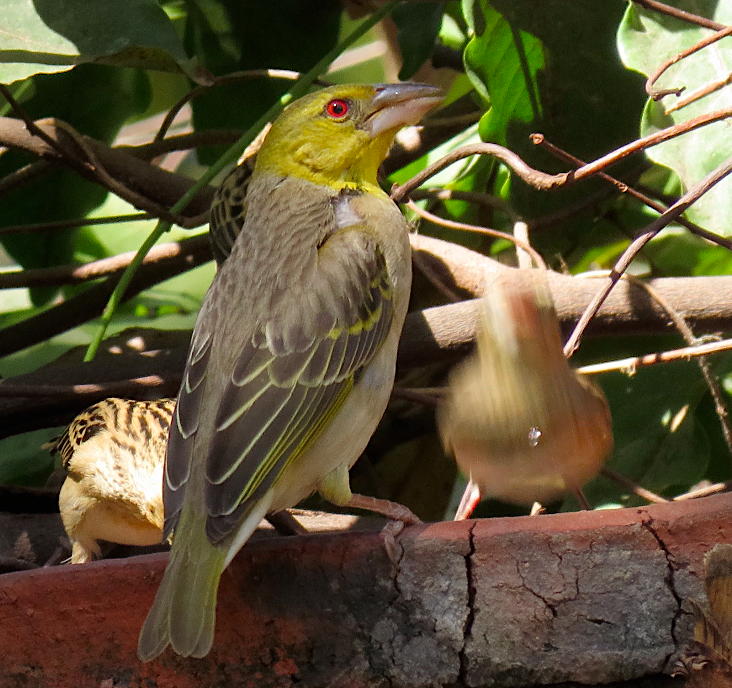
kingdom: Animalia
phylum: Chordata
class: Aves
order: Passeriformes
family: Ploceidae
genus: Ploceus
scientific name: Ploceus cucullatus
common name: Village weaver
